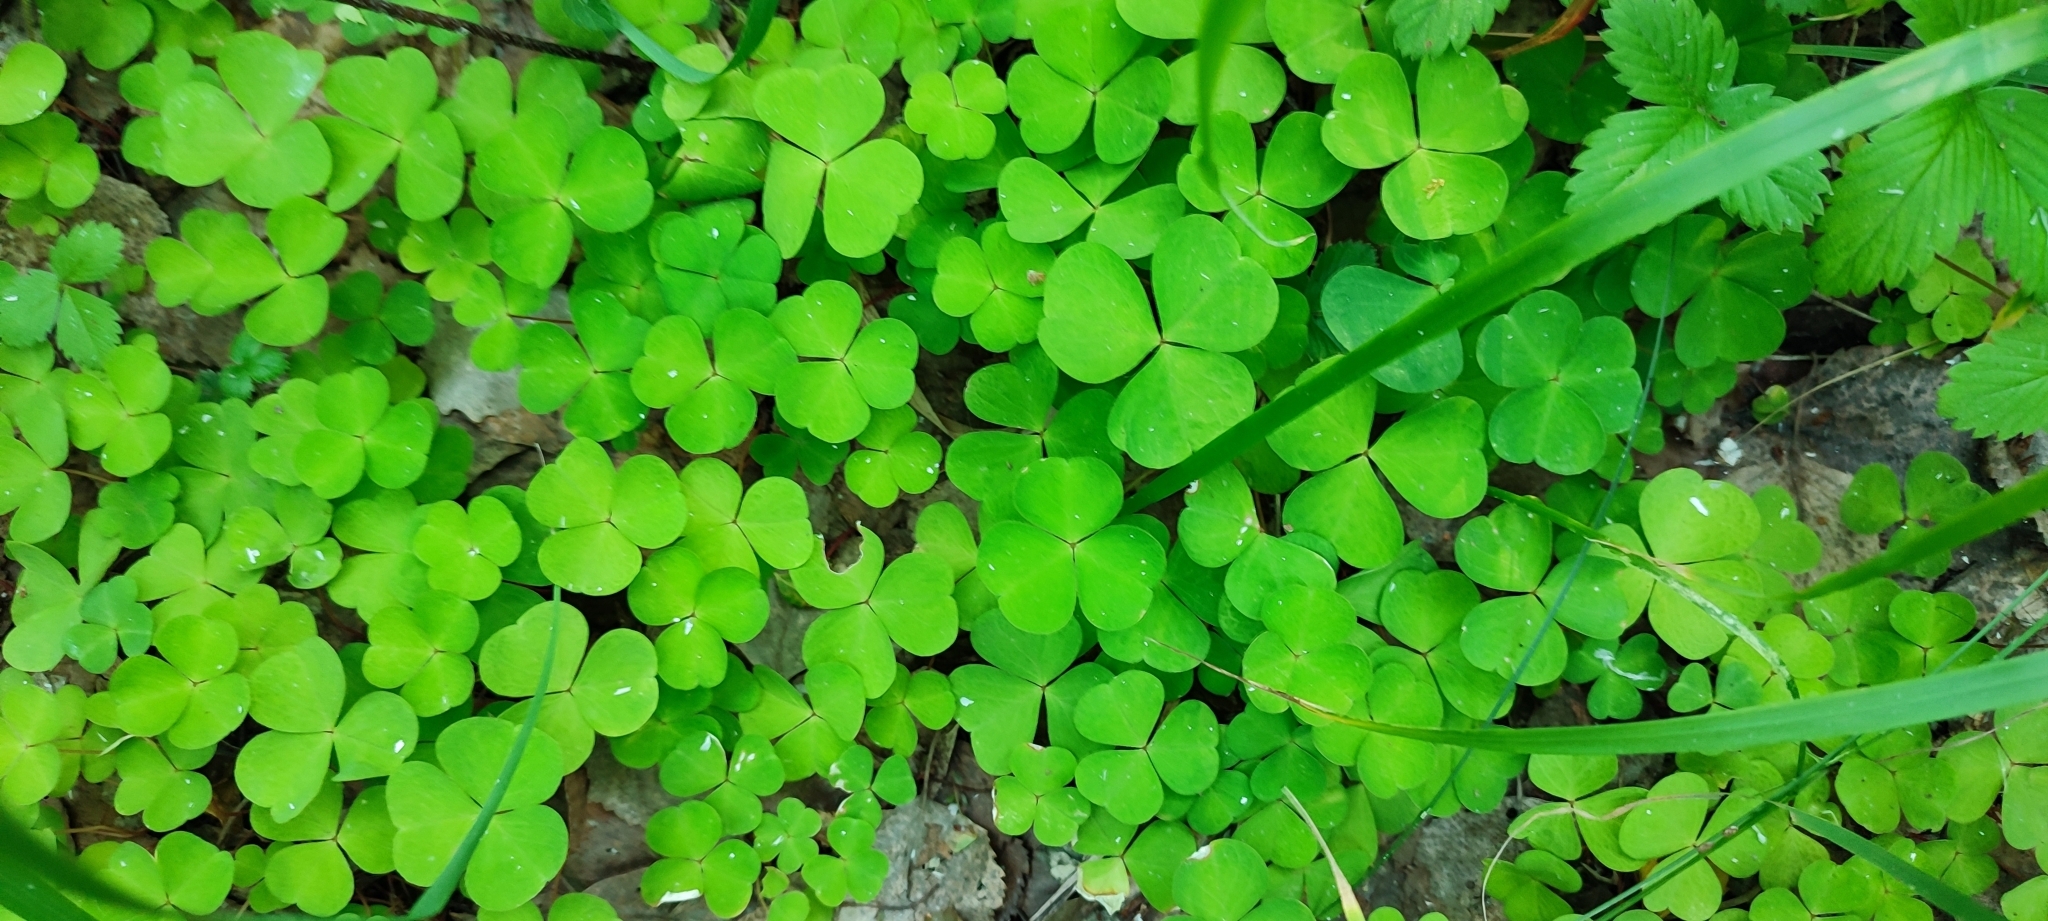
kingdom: Plantae
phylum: Tracheophyta
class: Magnoliopsida
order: Oxalidales
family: Oxalidaceae
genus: Oxalis
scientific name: Oxalis acetosella
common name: Wood-sorrel
